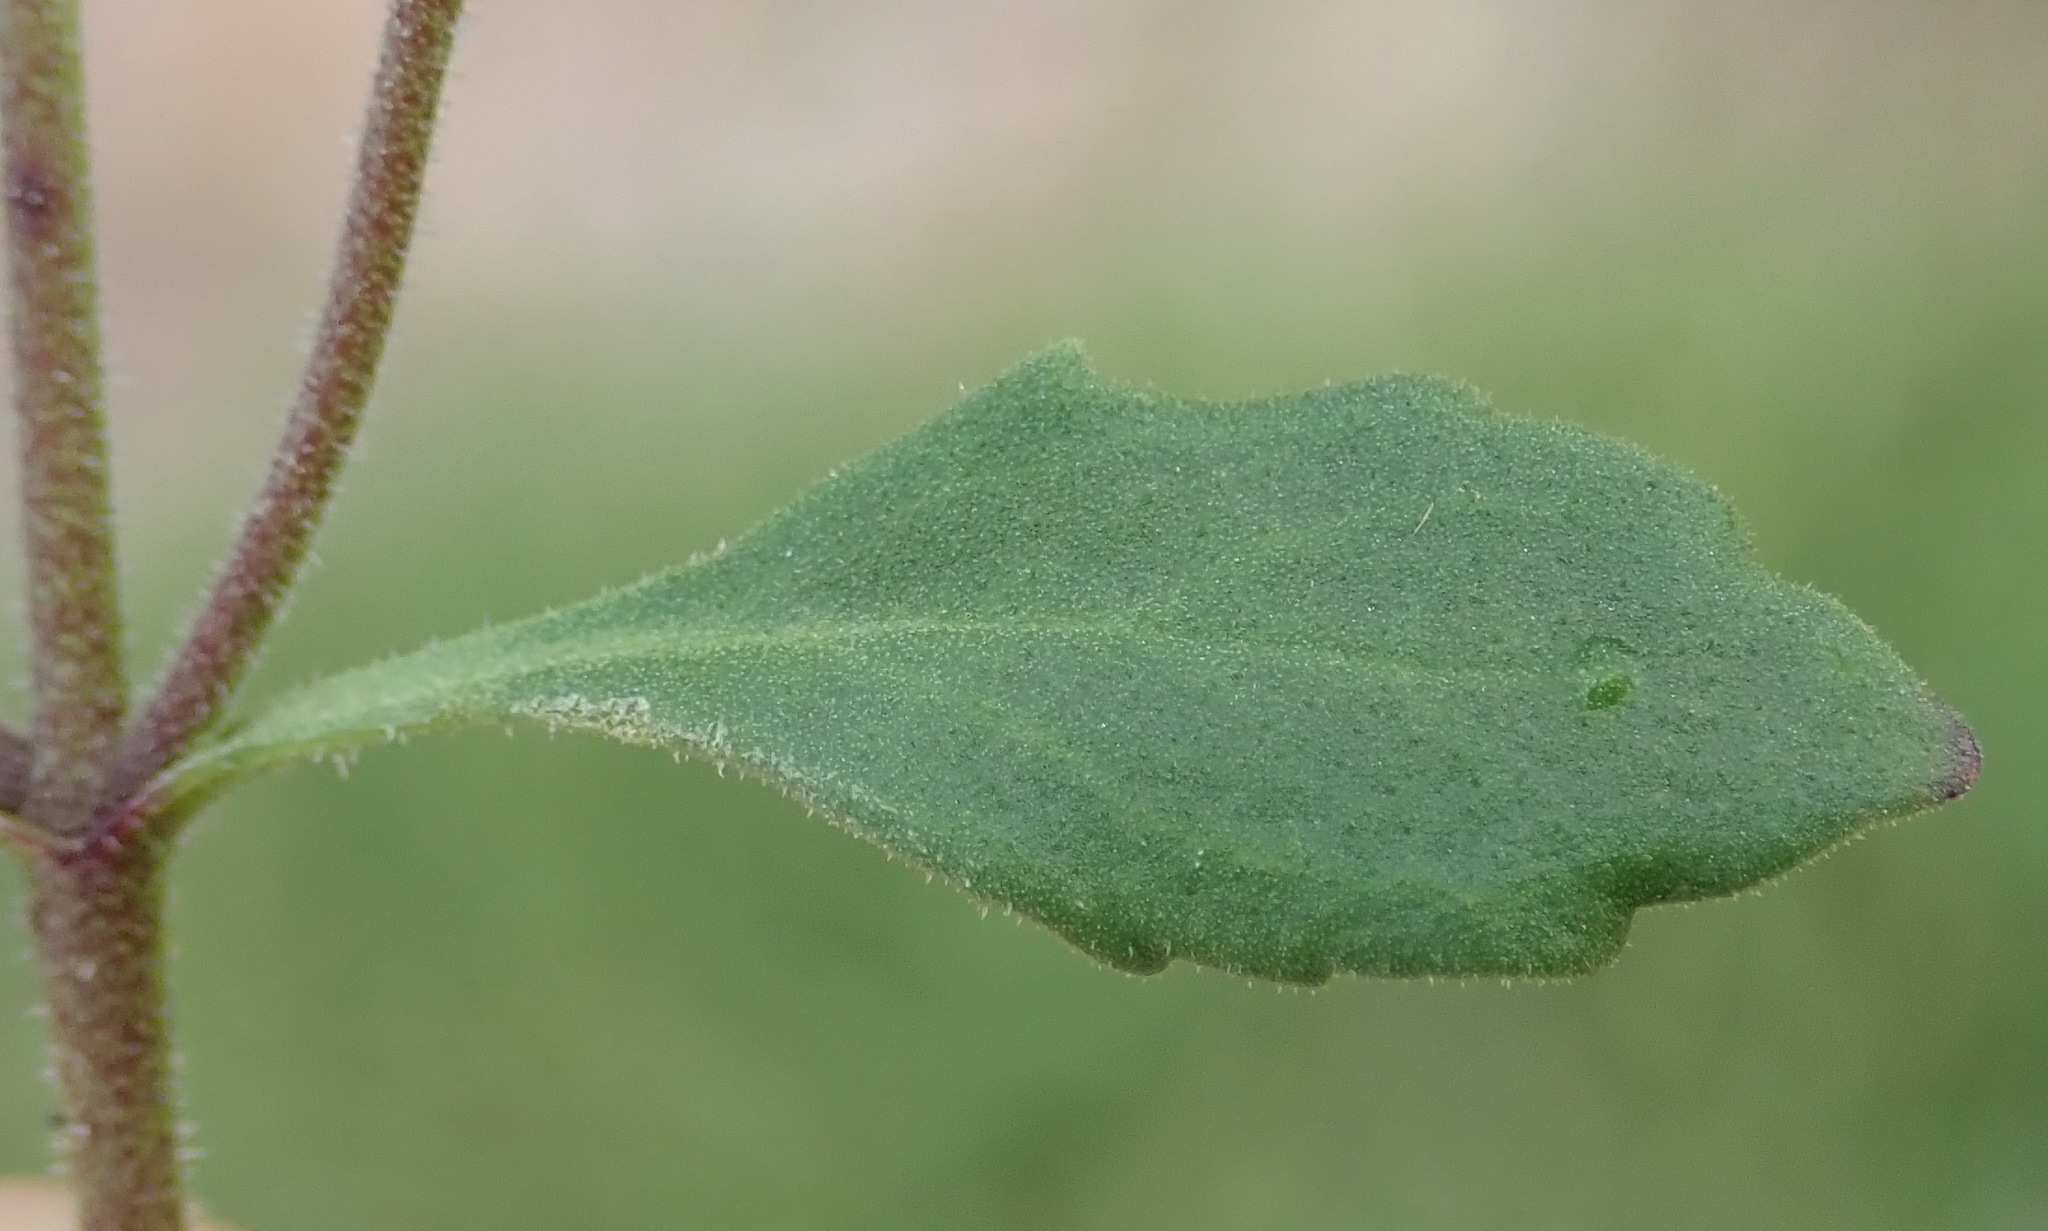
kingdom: Plantae
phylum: Tracheophyta
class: Magnoliopsida
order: Lamiales
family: Scrophulariaceae
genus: Chaenostoma
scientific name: Chaenostoma polyanthum
